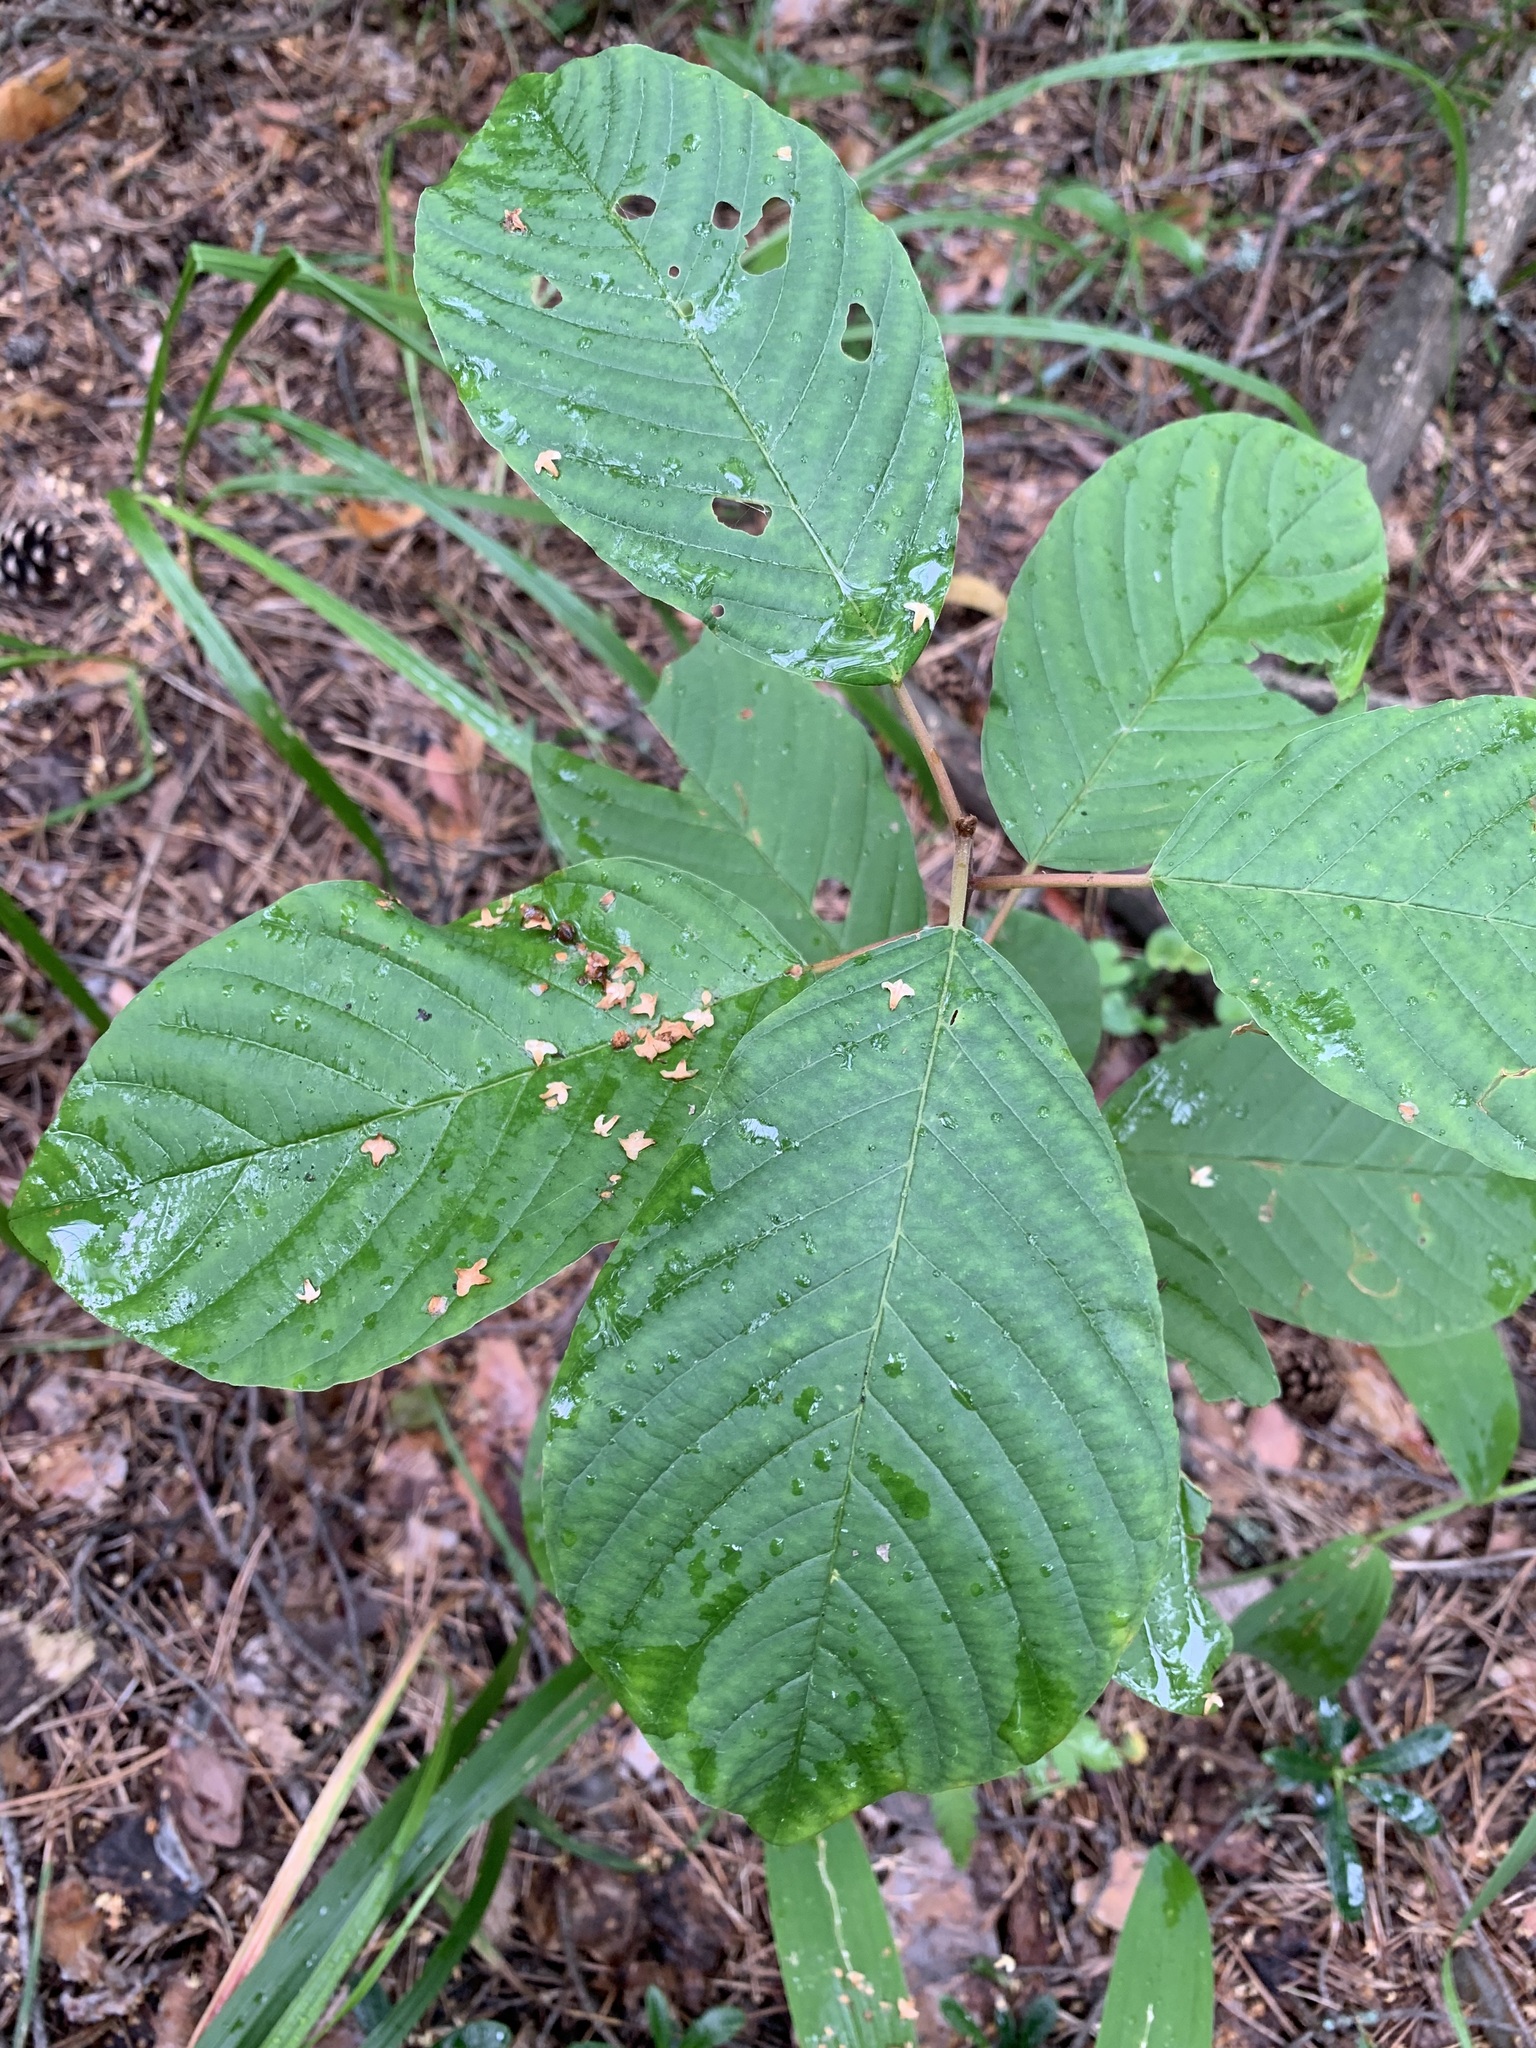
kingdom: Plantae
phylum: Tracheophyta
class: Magnoliopsida
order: Rosales
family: Rhamnaceae
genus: Frangula
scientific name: Frangula alnus
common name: Alder buckthorn
